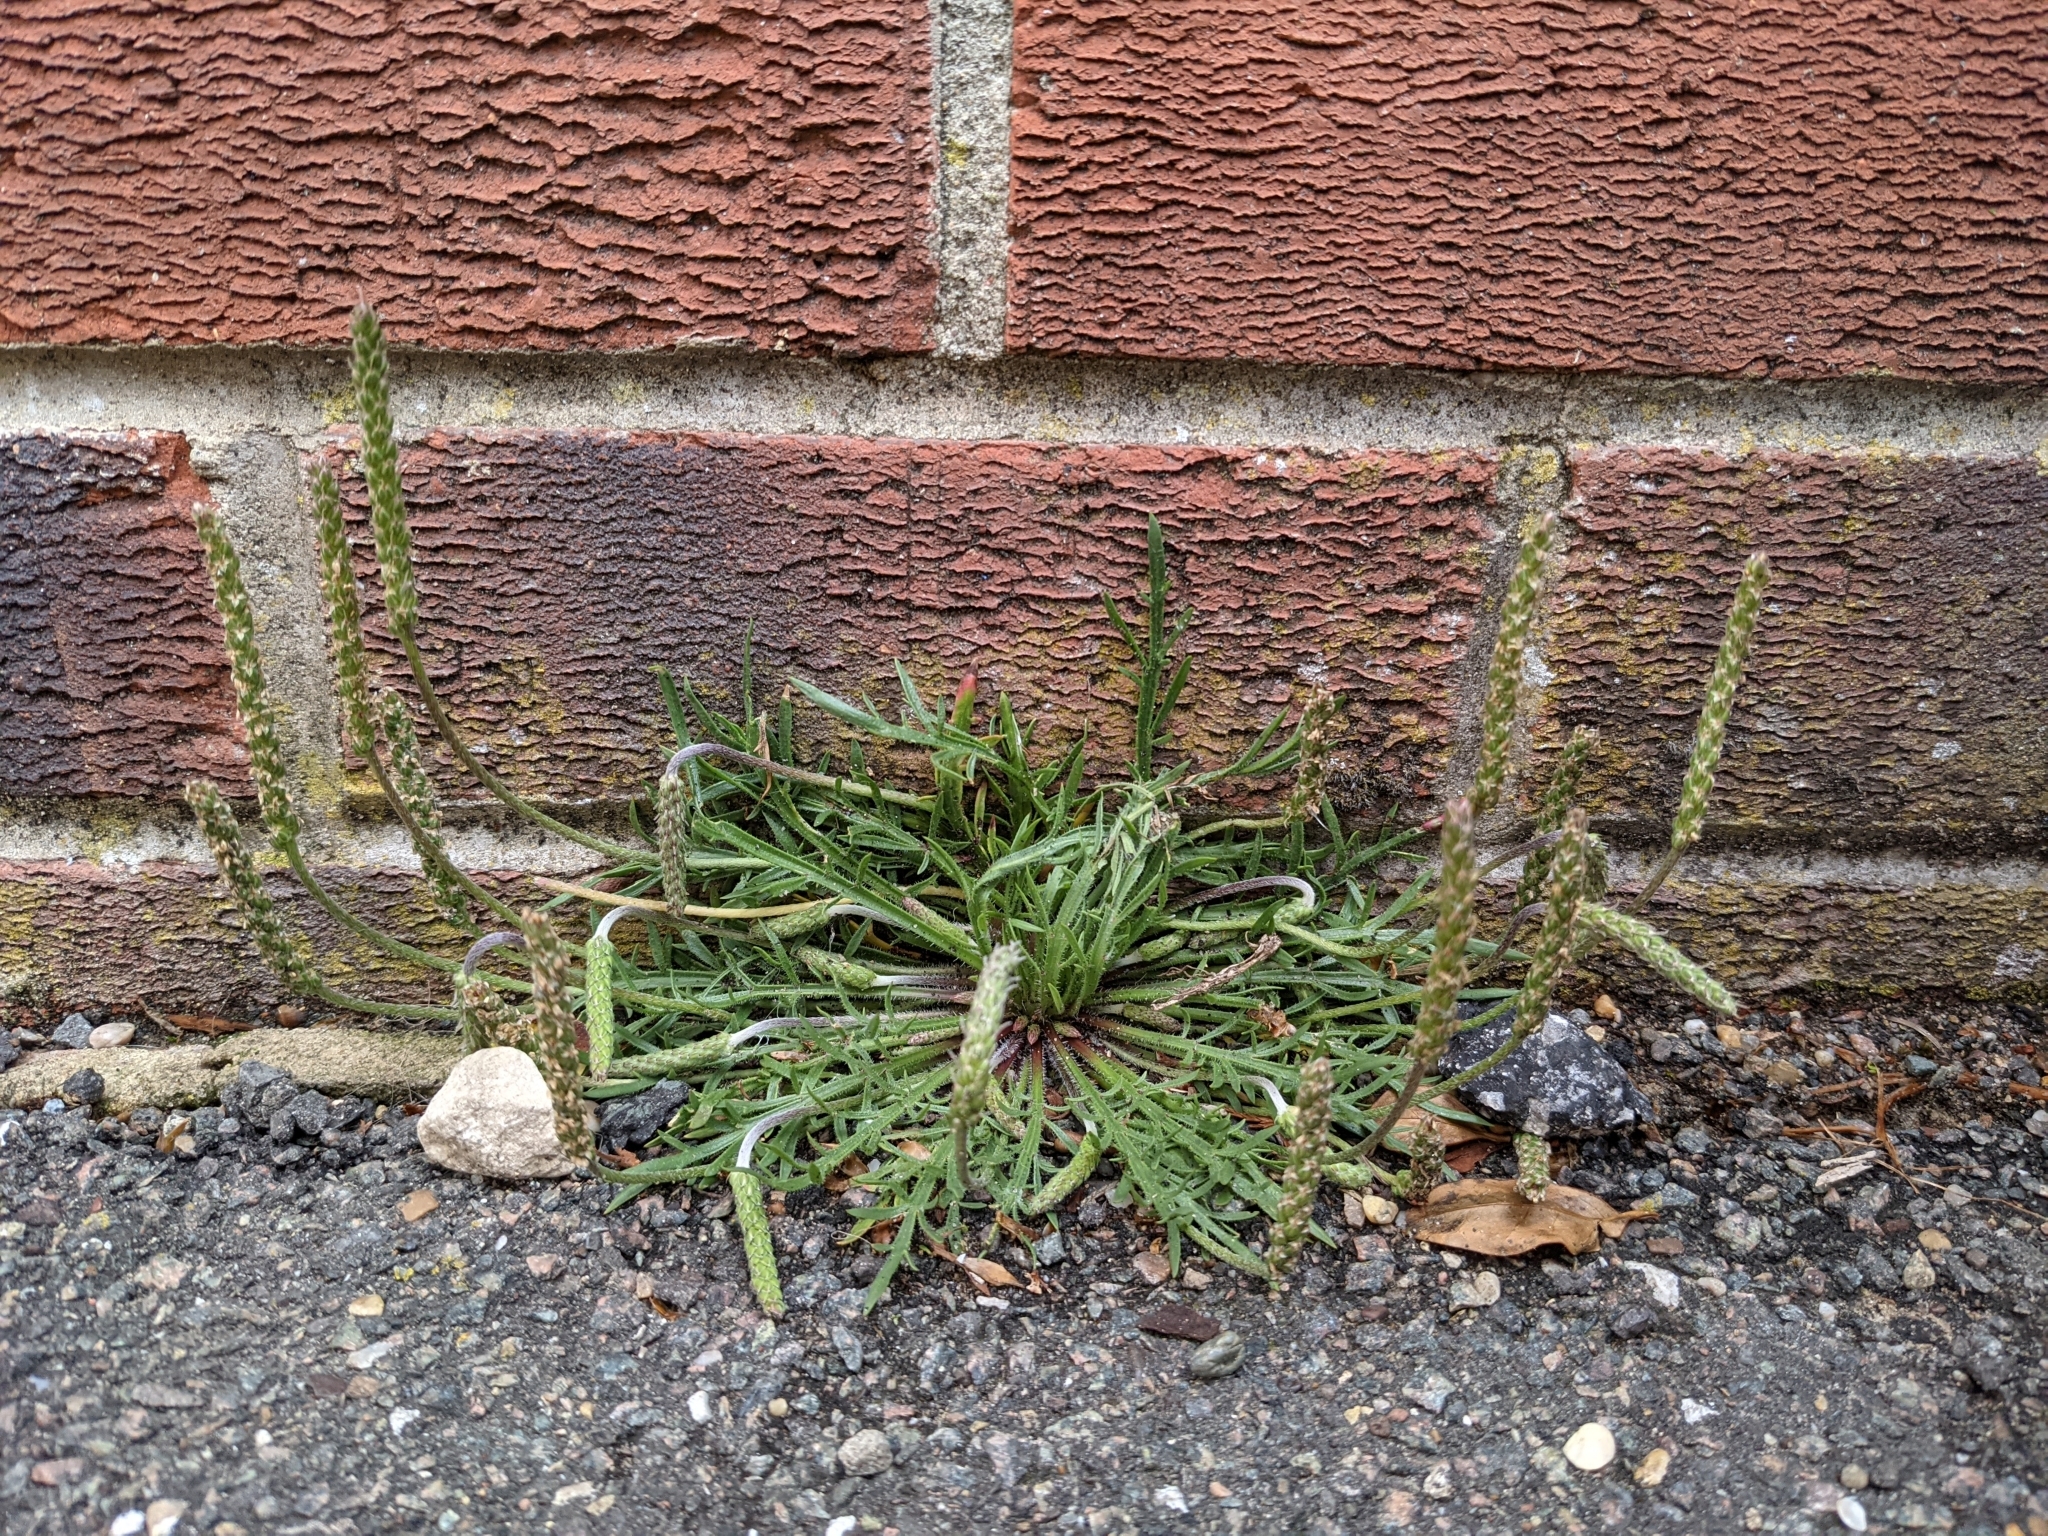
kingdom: Plantae
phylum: Tracheophyta
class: Magnoliopsida
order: Lamiales
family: Plantaginaceae
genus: Plantago
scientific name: Plantago coronopus
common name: Buck's-horn plantain
